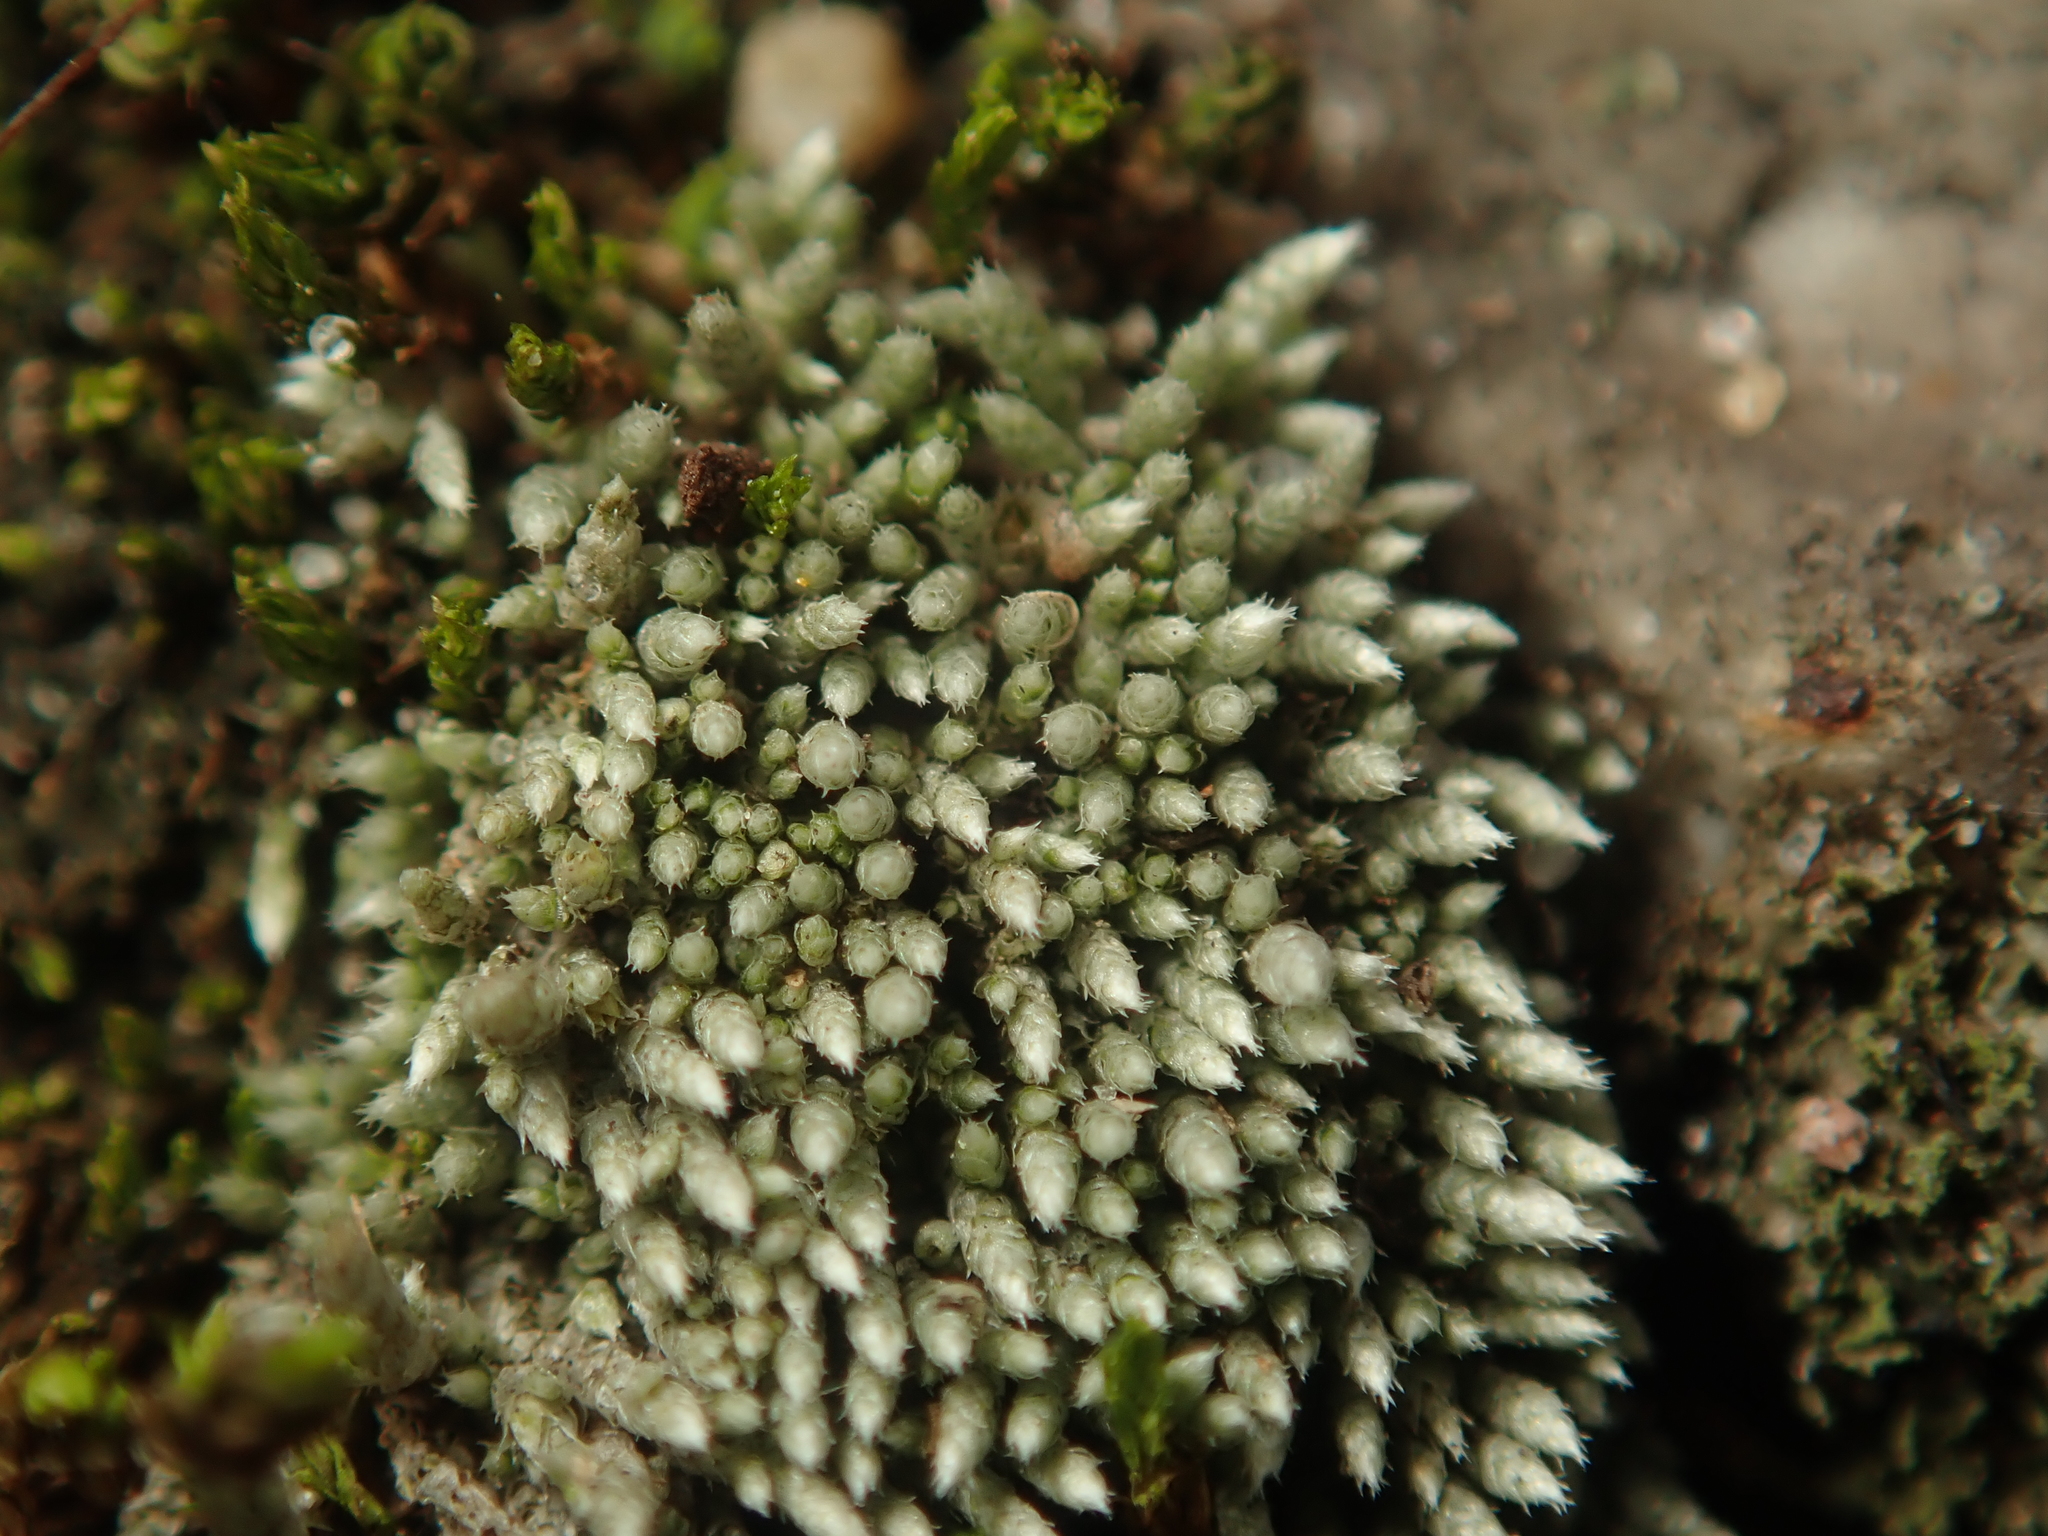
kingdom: Plantae
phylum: Bryophyta
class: Bryopsida
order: Bryales
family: Bryaceae
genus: Bryum
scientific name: Bryum argenteum
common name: Silver-moss
